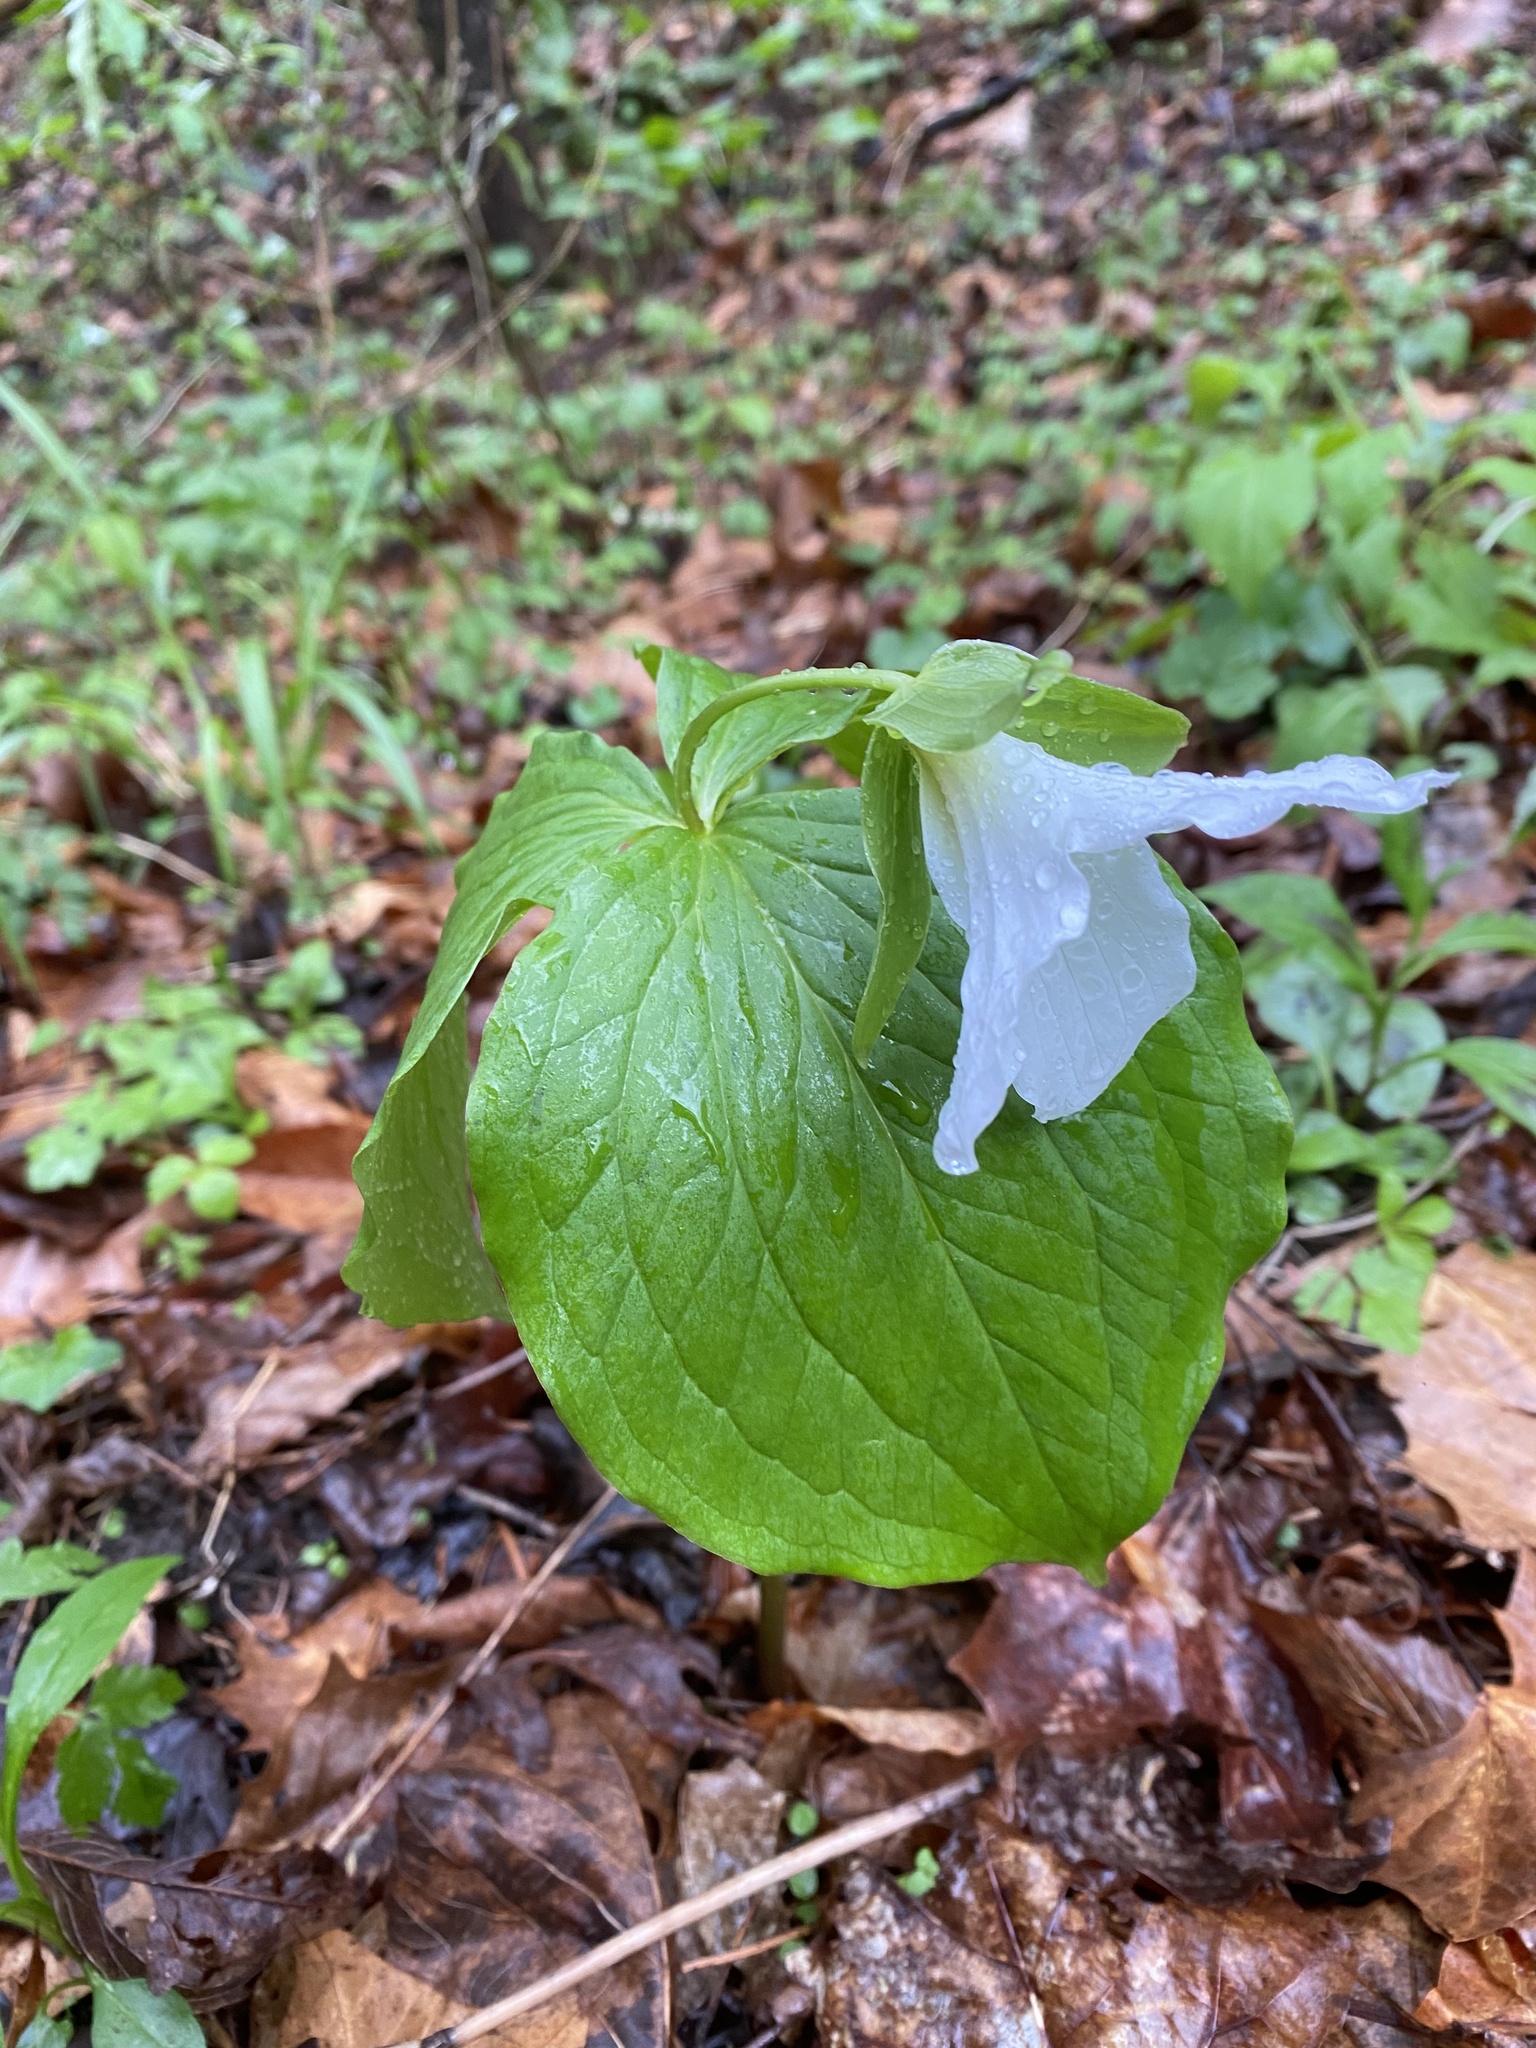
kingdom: Plantae
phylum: Tracheophyta
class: Liliopsida
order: Liliales
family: Melanthiaceae
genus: Trillium
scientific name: Trillium grandiflorum
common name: Great white trillium
